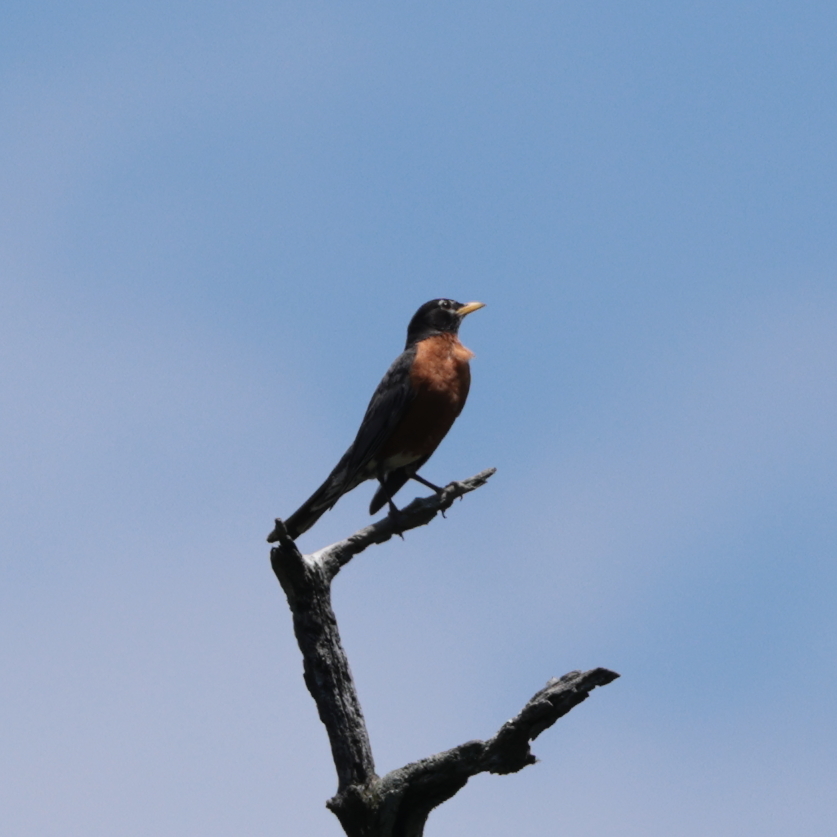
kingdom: Animalia
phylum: Chordata
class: Aves
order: Passeriformes
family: Turdidae
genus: Turdus
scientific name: Turdus migratorius
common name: American robin
